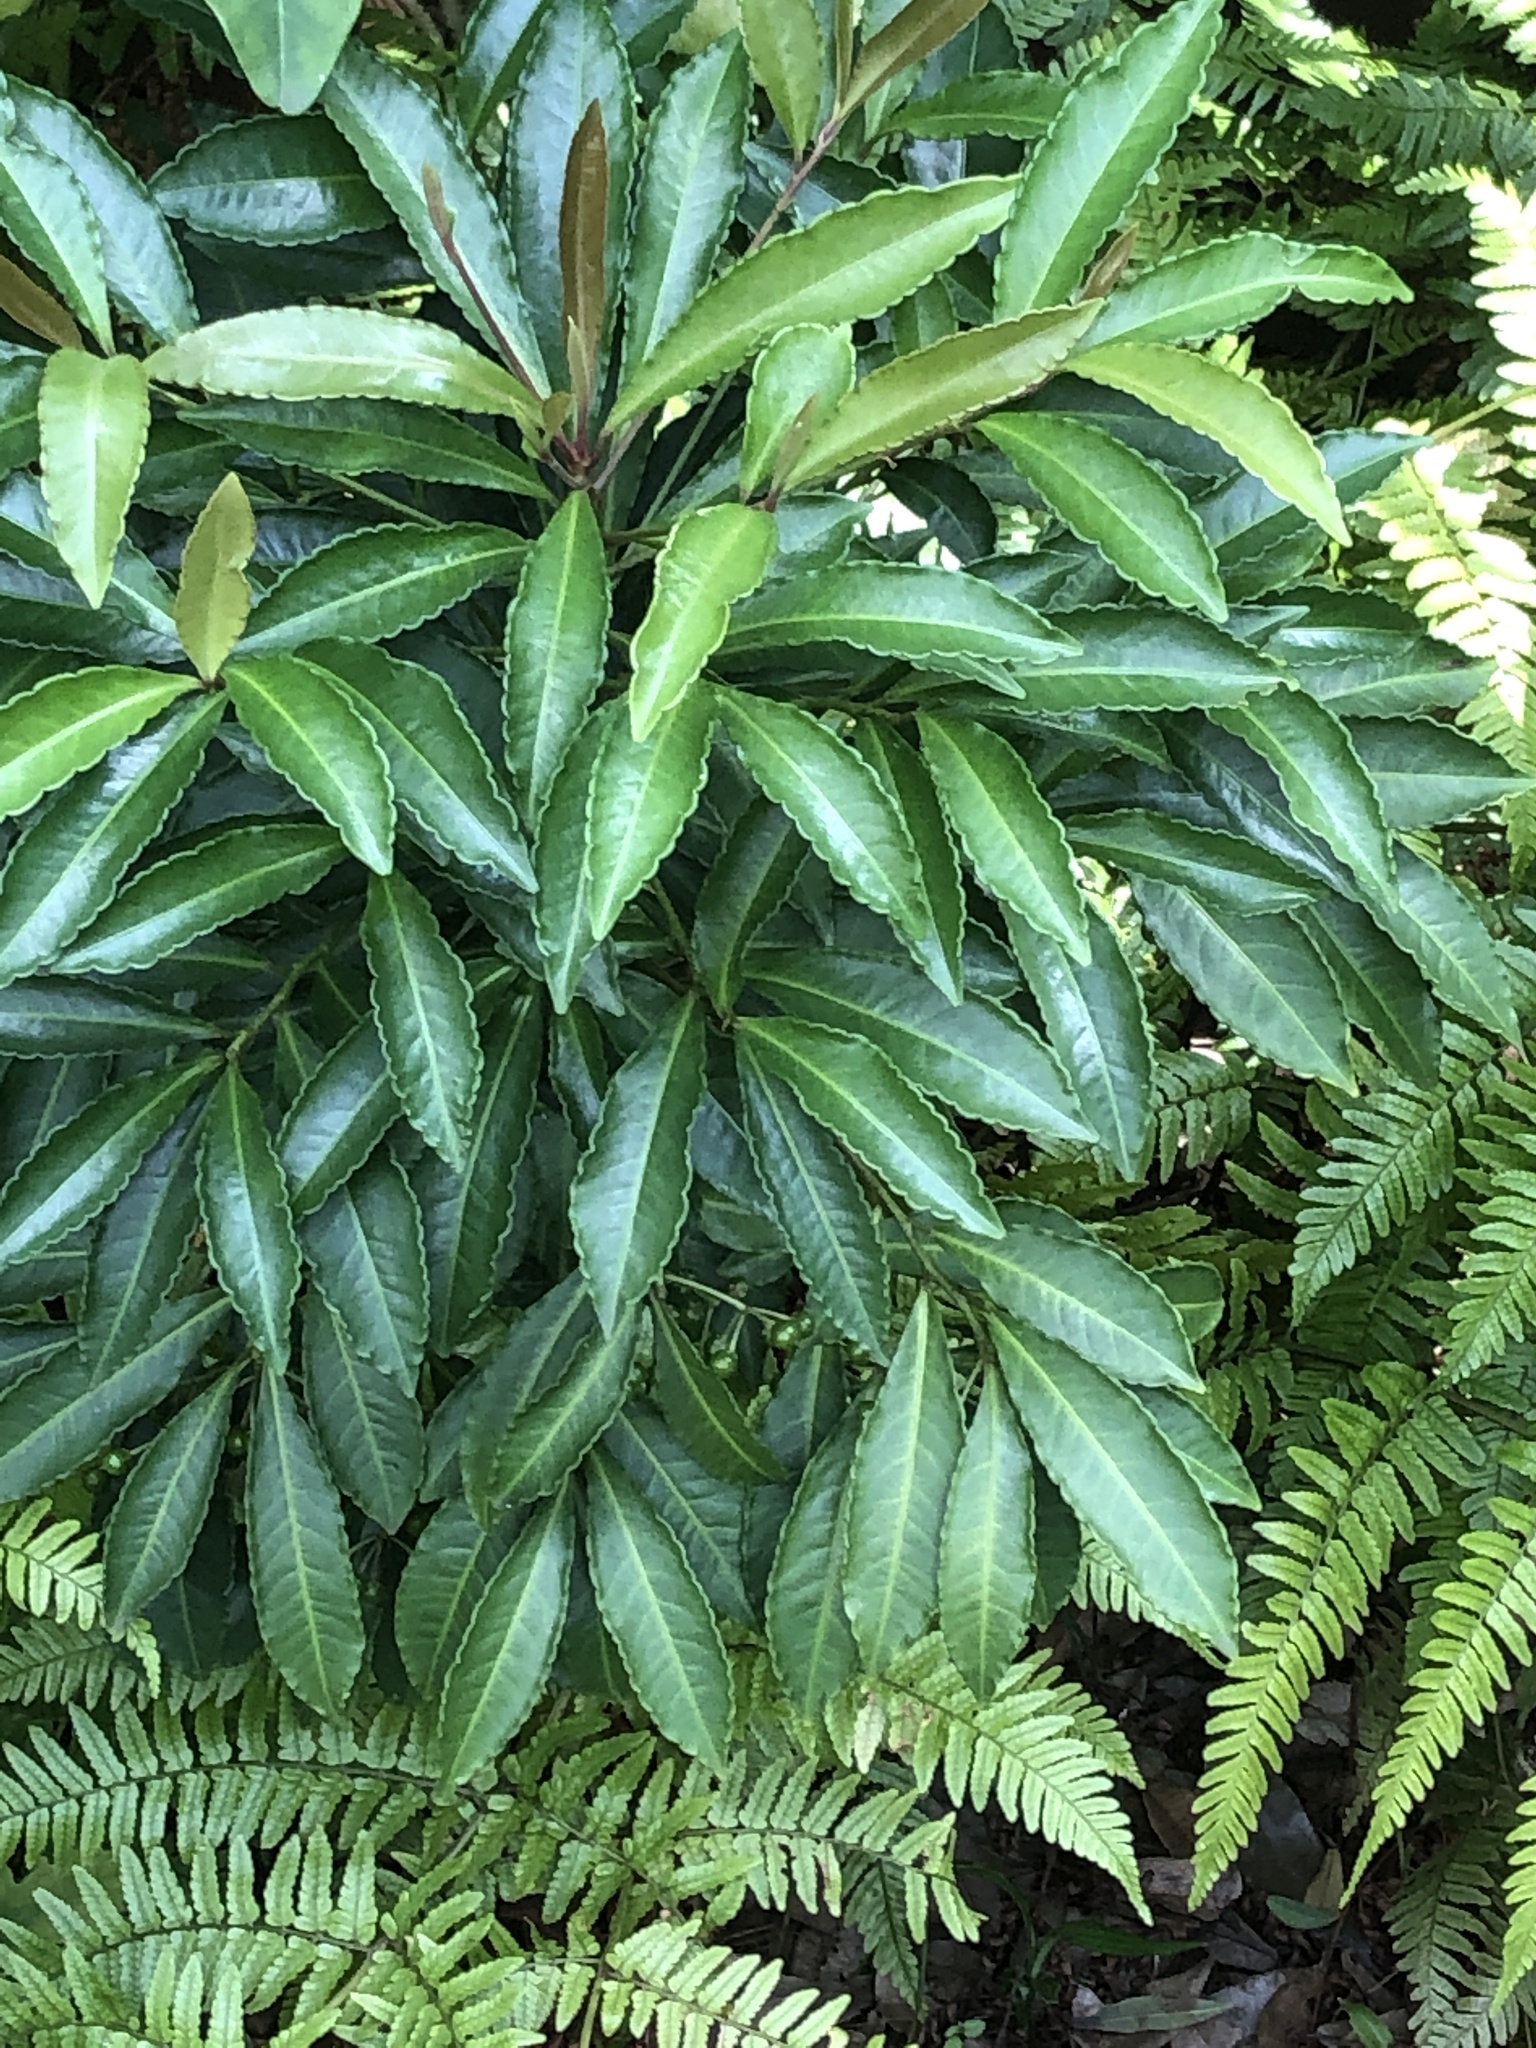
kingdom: Plantae
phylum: Tracheophyta
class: Magnoliopsida
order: Ericales
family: Primulaceae
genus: Ardisia
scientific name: Ardisia crenata
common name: Hen's eyes
